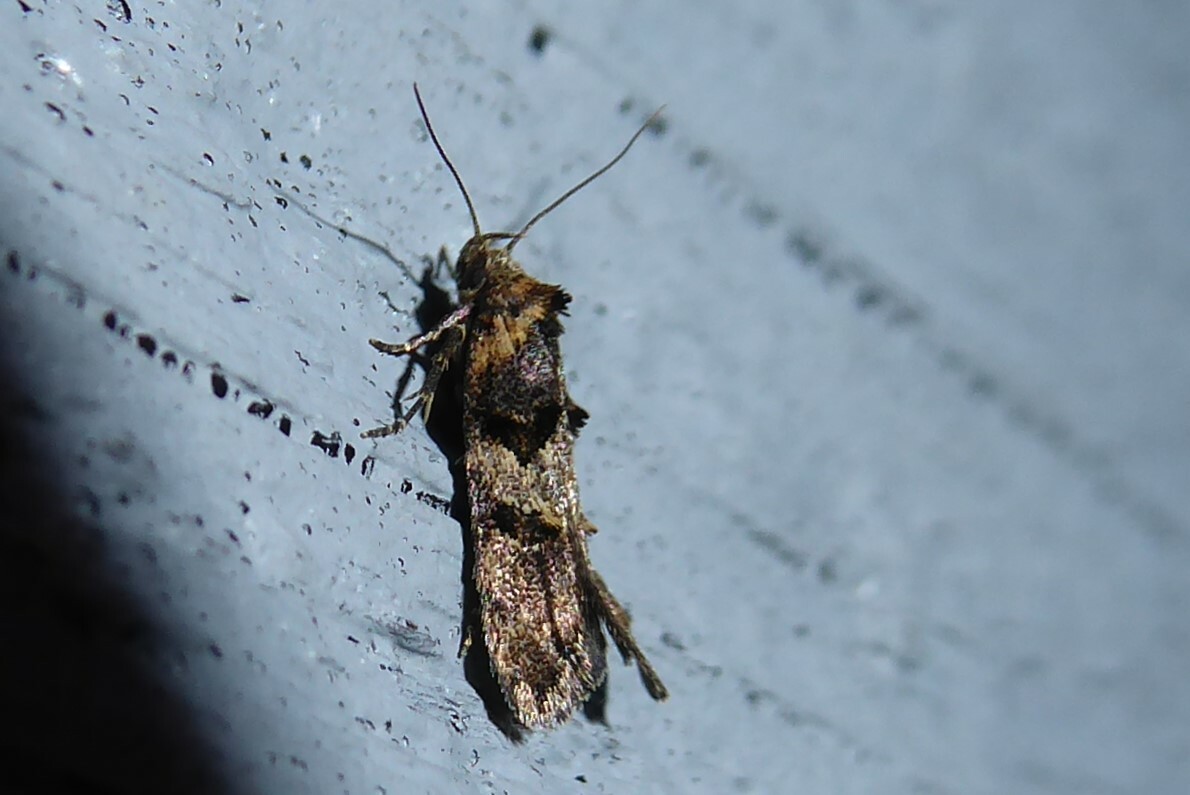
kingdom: Animalia
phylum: Arthropoda
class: Insecta
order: Lepidoptera
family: Oecophoridae
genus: Trachypepla
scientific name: Trachypepla anastrella
